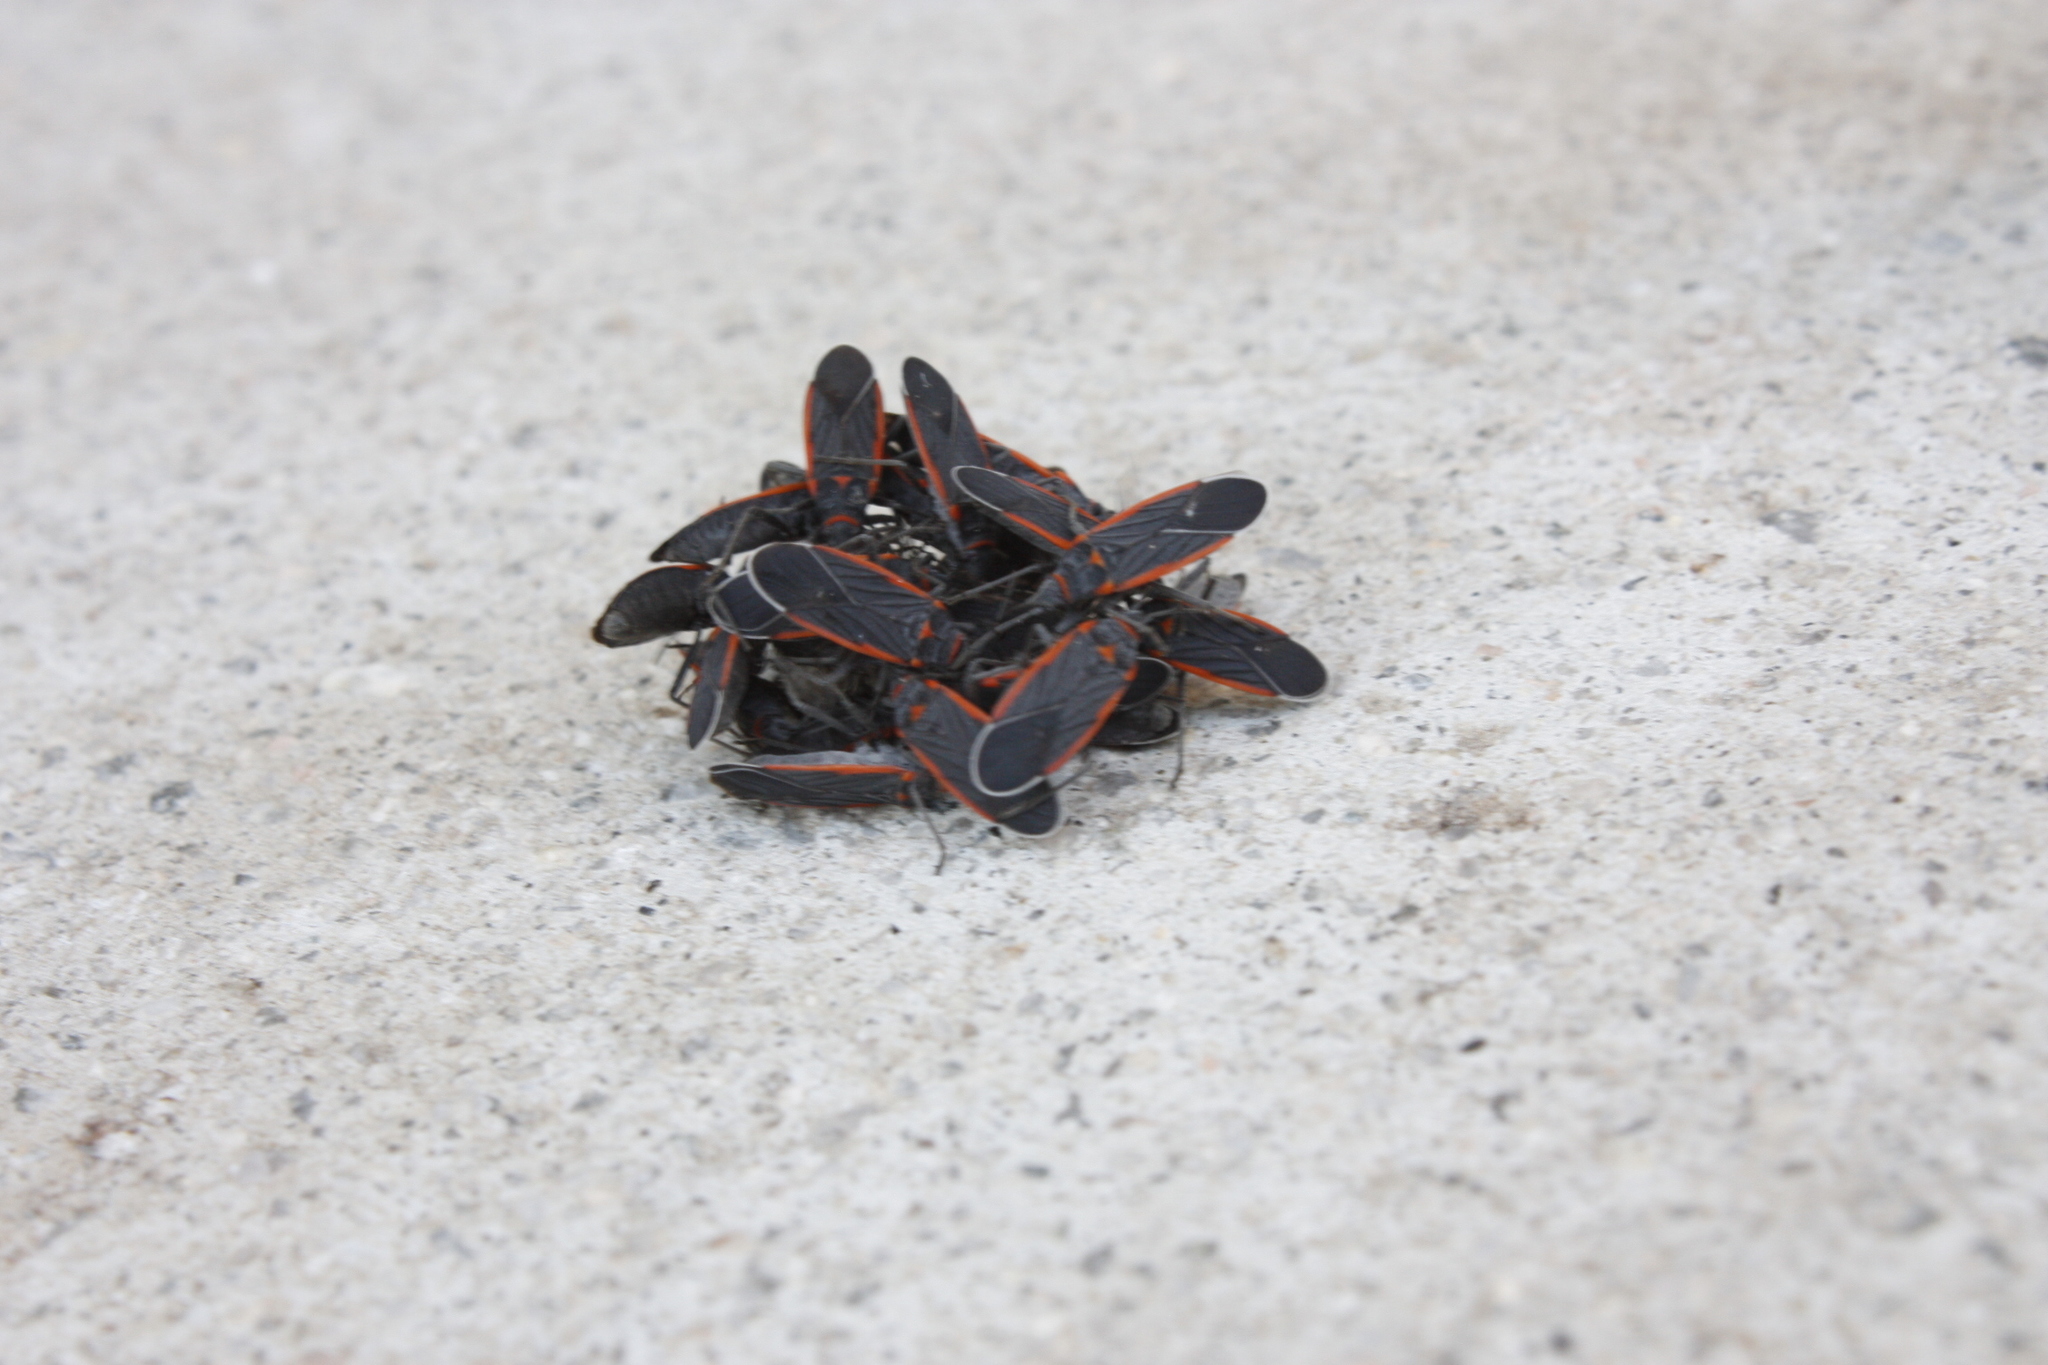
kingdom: Animalia
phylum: Arthropoda
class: Insecta
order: Hemiptera
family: Lygaeidae
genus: Melacoryphus
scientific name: Melacoryphus lateralis
